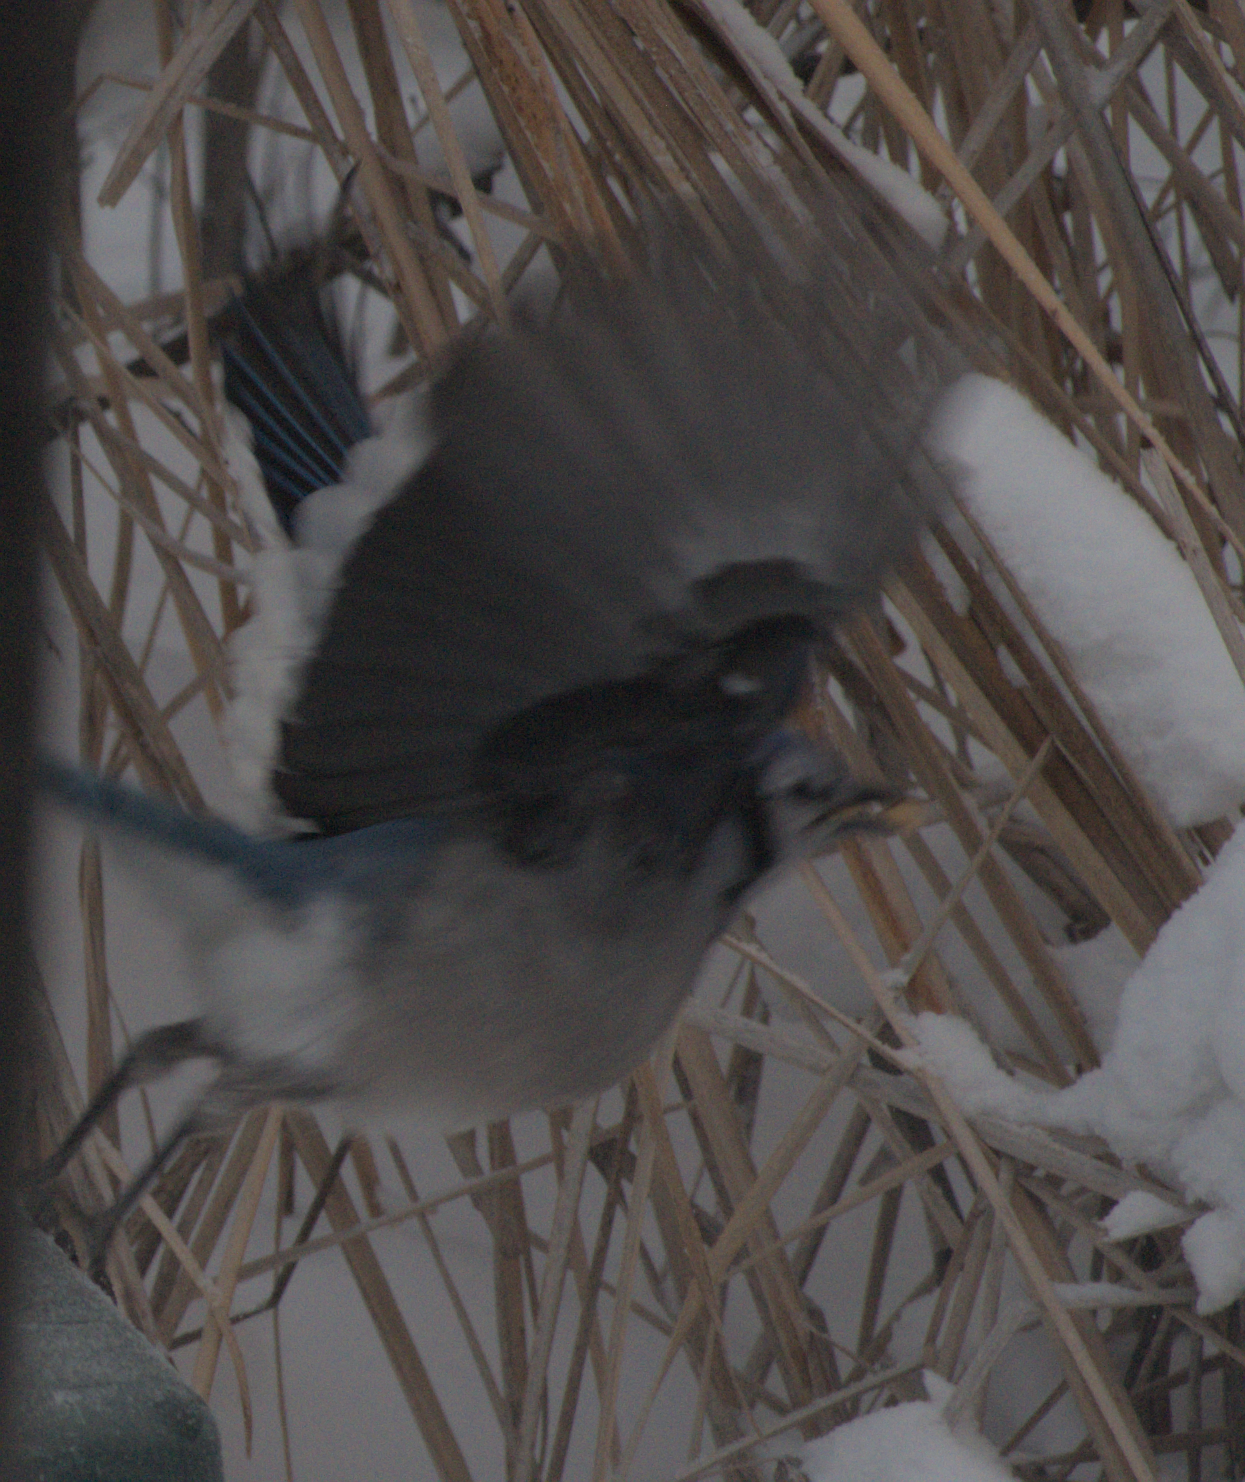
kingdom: Animalia
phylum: Chordata
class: Aves
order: Passeriformes
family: Corvidae
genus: Cyanocitta
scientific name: Cyanocitta cristata
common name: Blue jay
